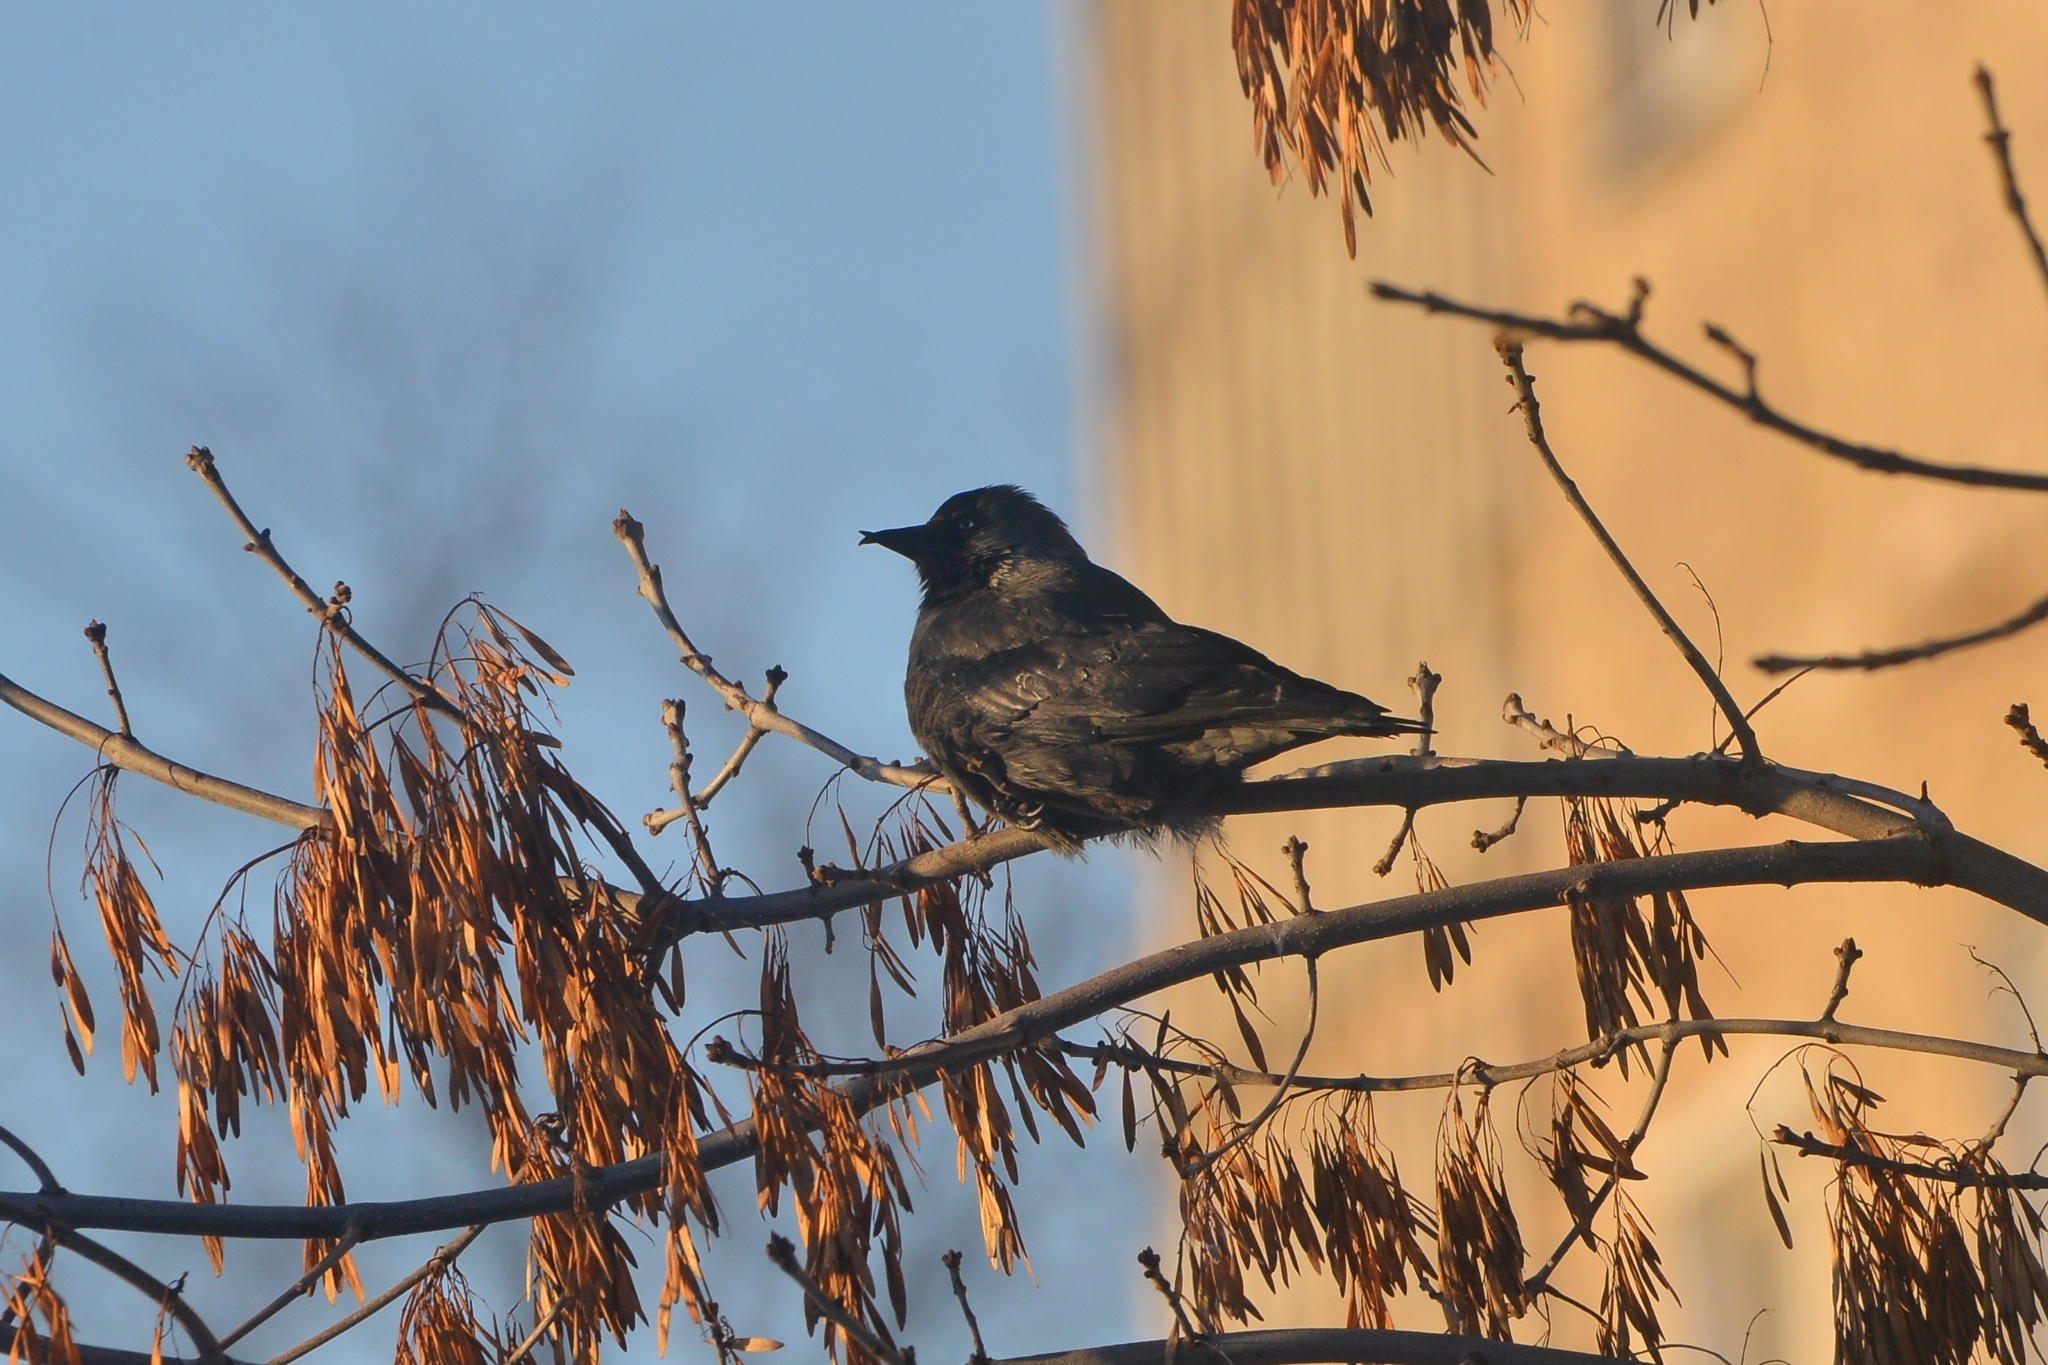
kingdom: Animalia
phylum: Chordata
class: Aves
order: Passeriformes
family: Corvidae
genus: Coloeus
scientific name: Coloeus monedula
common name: Western jackdaw
